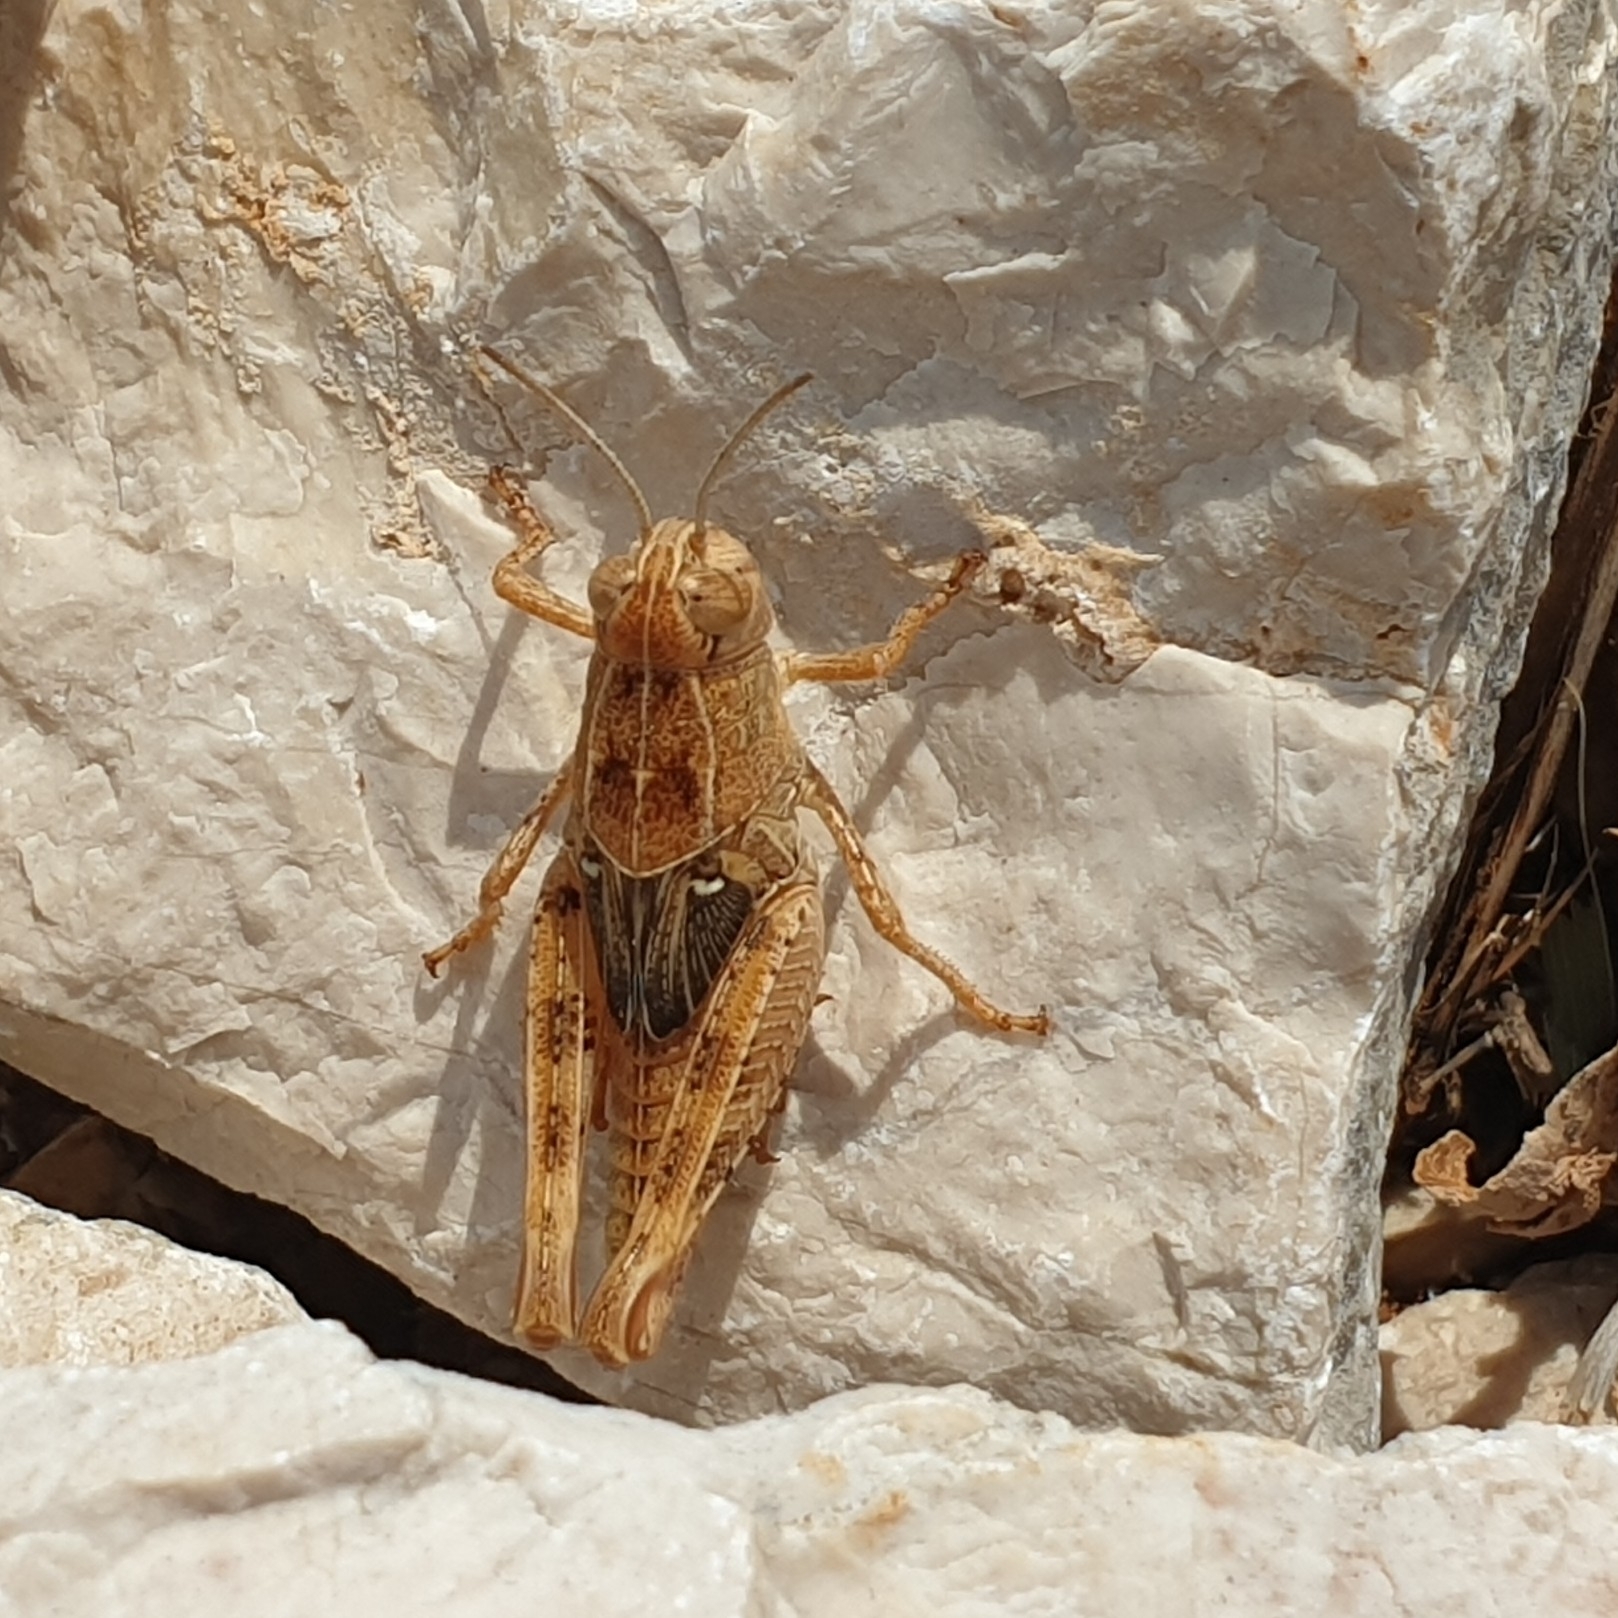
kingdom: Animalia
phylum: Arthropoda
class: Insecta
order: Orthoptera
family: Acrididae
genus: Calliptamus
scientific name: Calliptamus italicus
